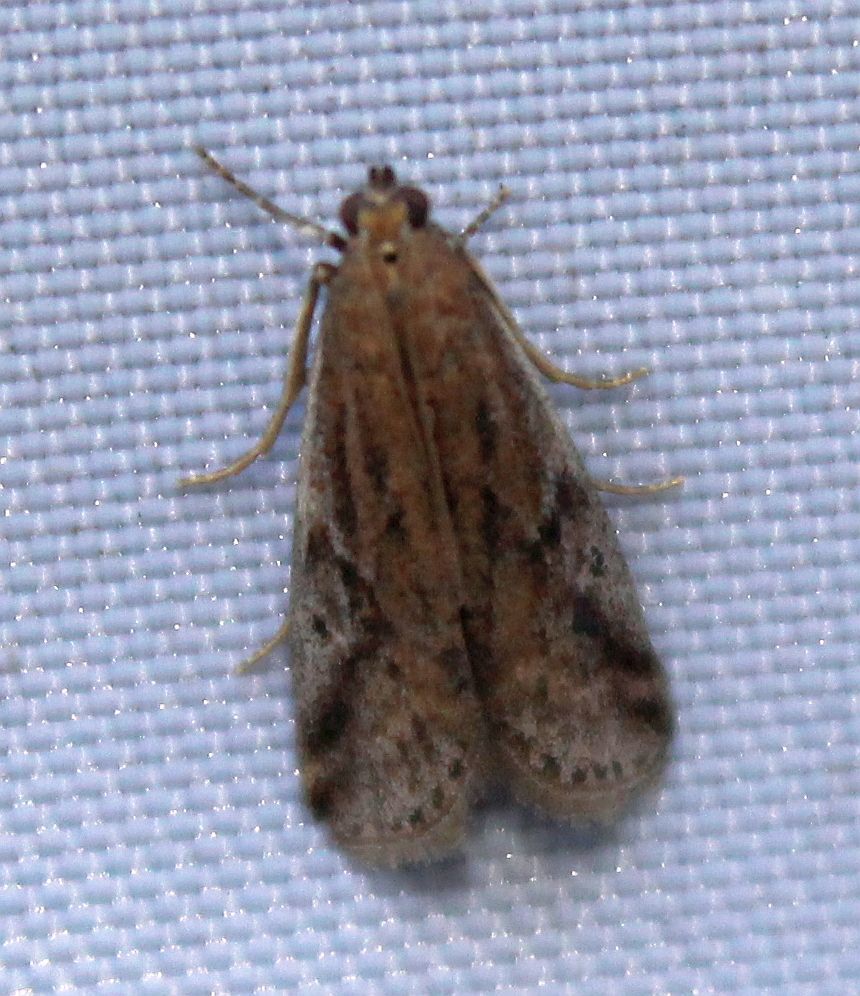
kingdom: Animalia
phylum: Arthropoda
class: Insecta
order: Lepidoptera
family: Pyralidae
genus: Phycitodes
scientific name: Phycitodes binaevella
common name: Ermine knot-horn
